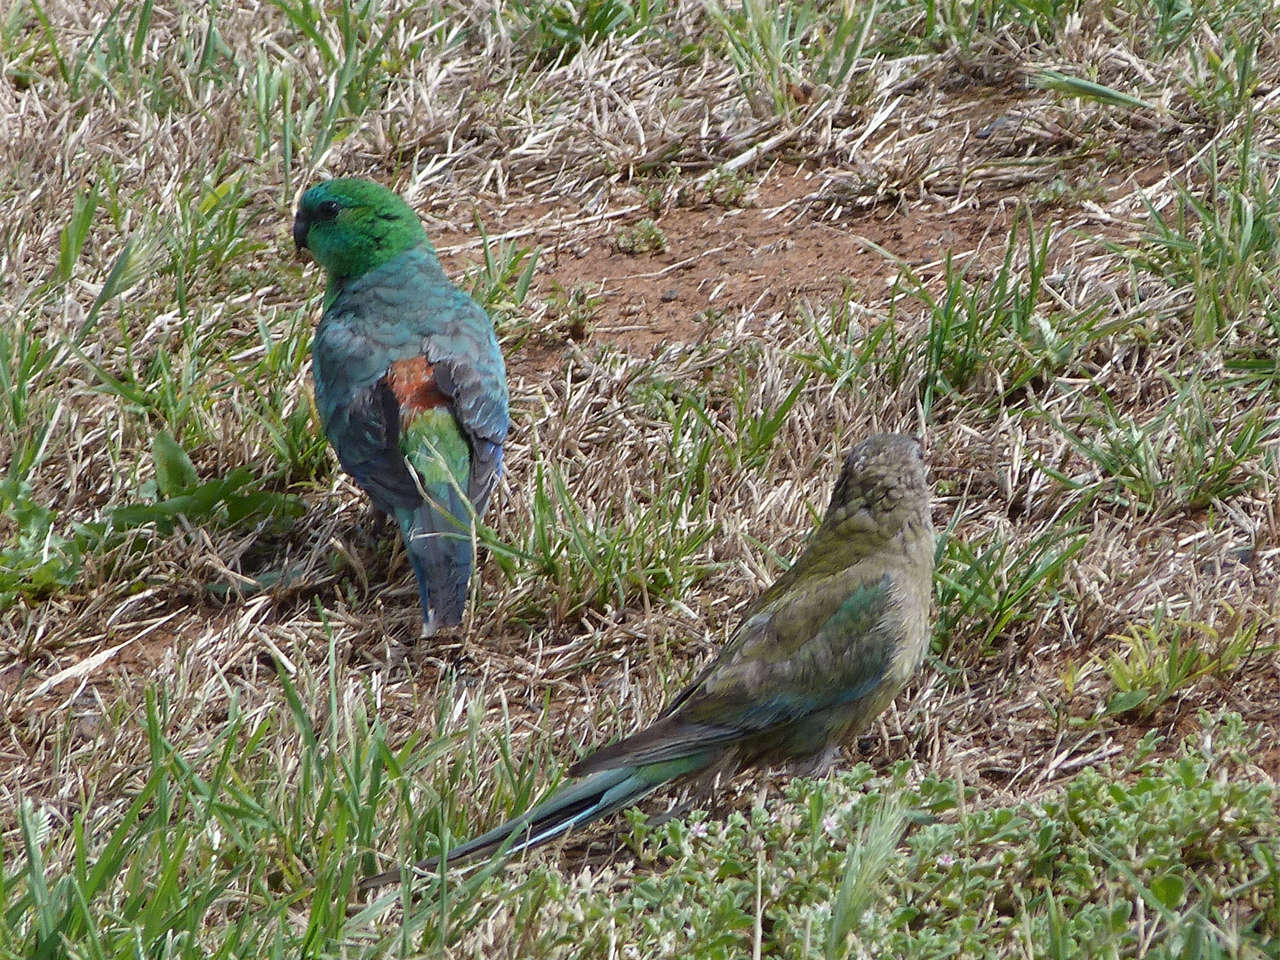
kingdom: Animalia
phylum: Chordata
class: Aves
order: Psittaciformes
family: Psittacidae
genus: Psephotus
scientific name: Psephotus haematonotus
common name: Red-rumped parrot
